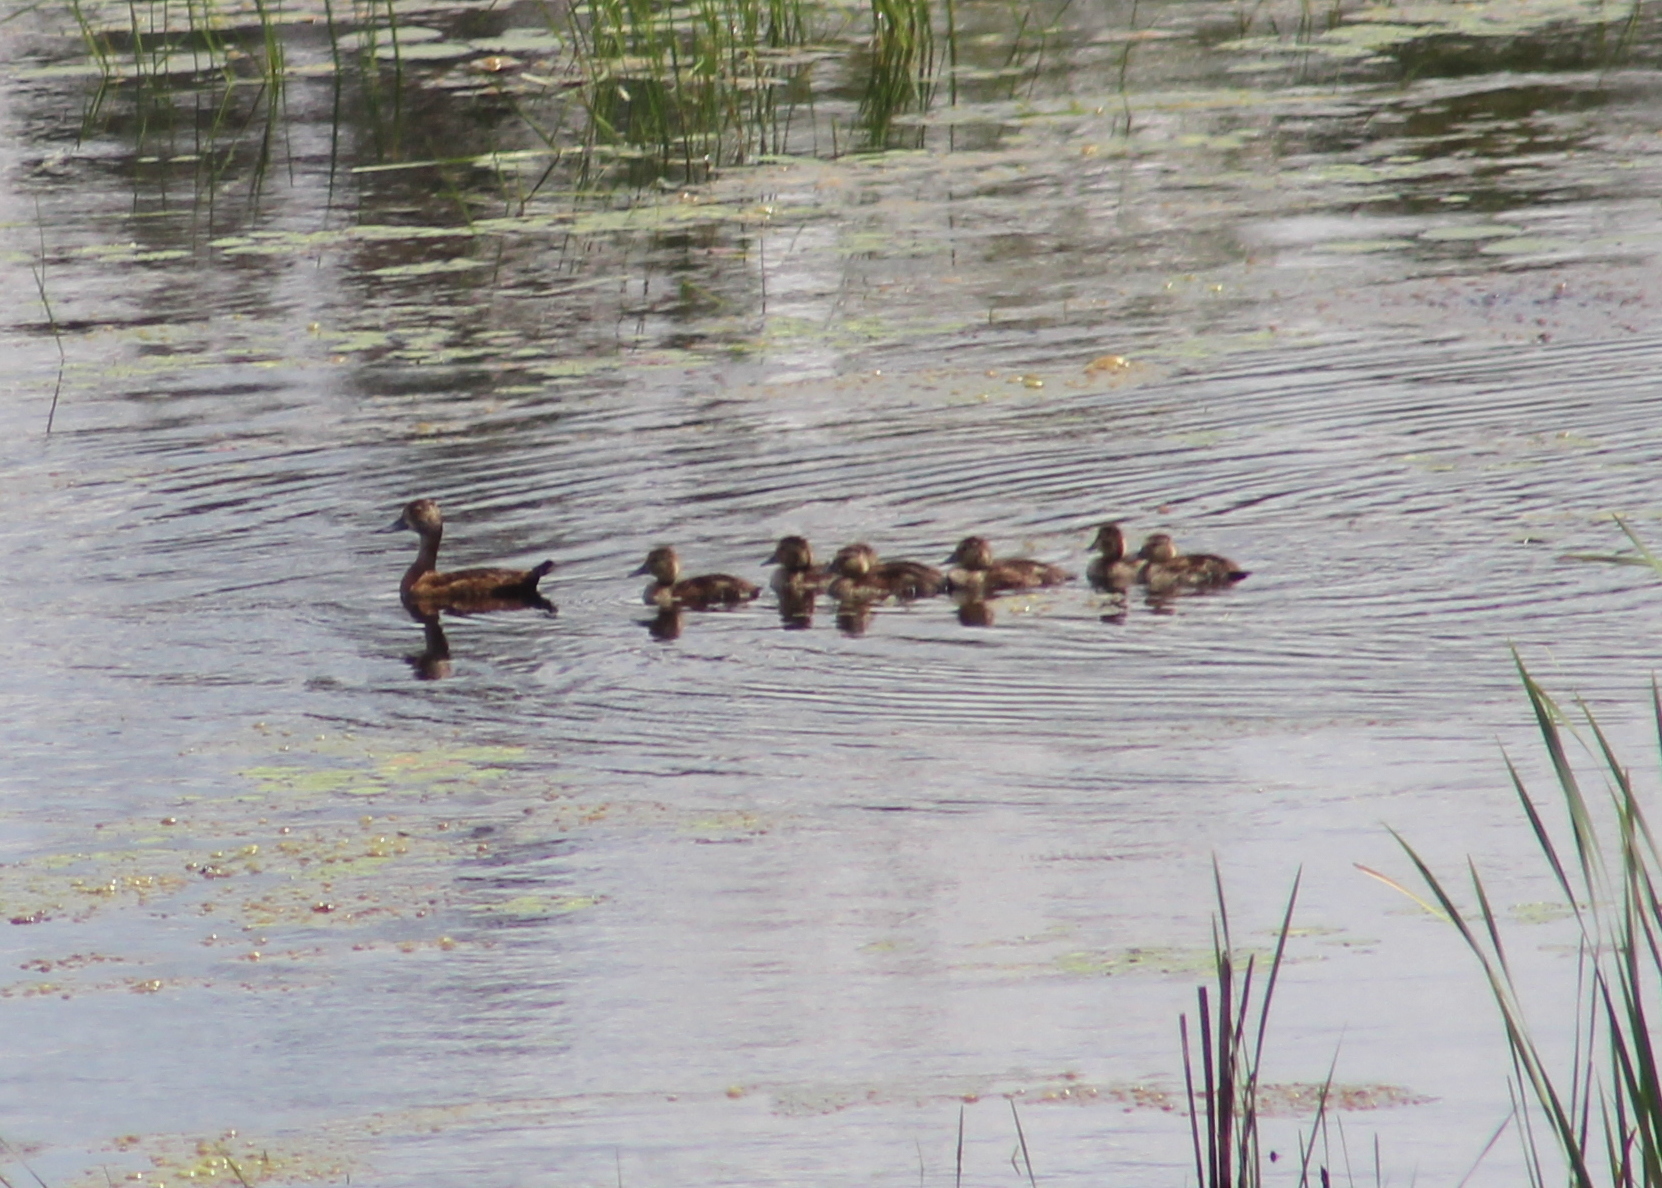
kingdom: Animalia
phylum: Chordata
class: Aves
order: Anseriformes
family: Anatidae
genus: Aythya
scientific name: Aythya collaris
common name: Ring-necked duck
